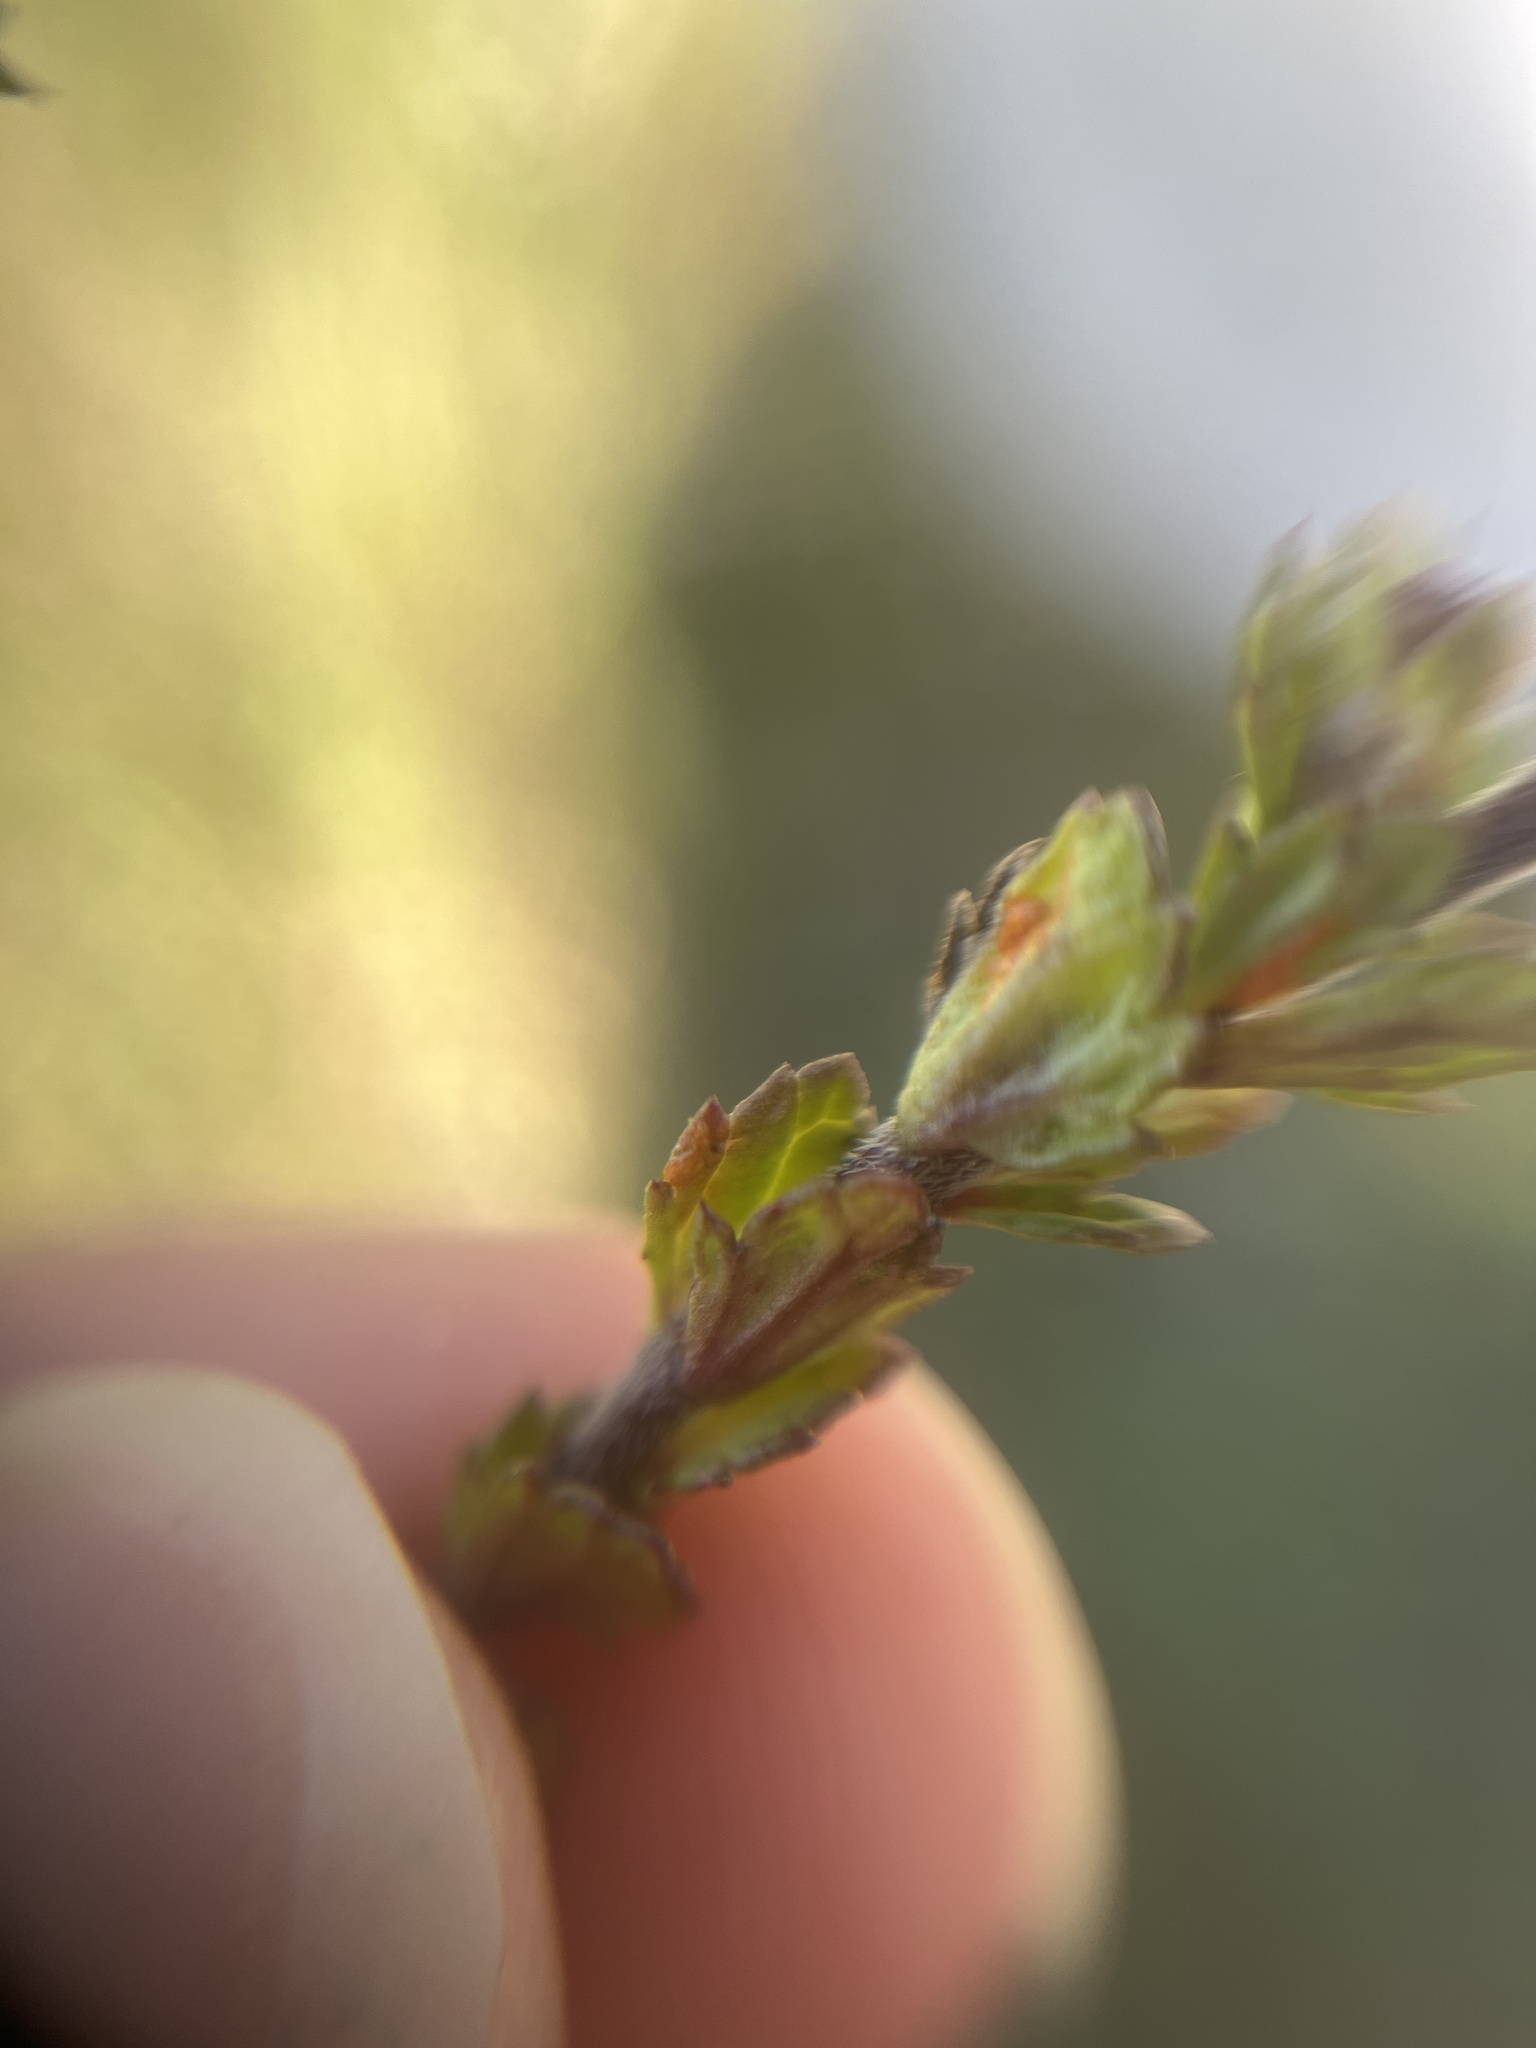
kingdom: Fungi
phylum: Basidiomycota
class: Pucciniomycetes
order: Pucciniales
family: Coleosporiaceae
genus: Coleosporium
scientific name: Coleosporium euphrasiae
